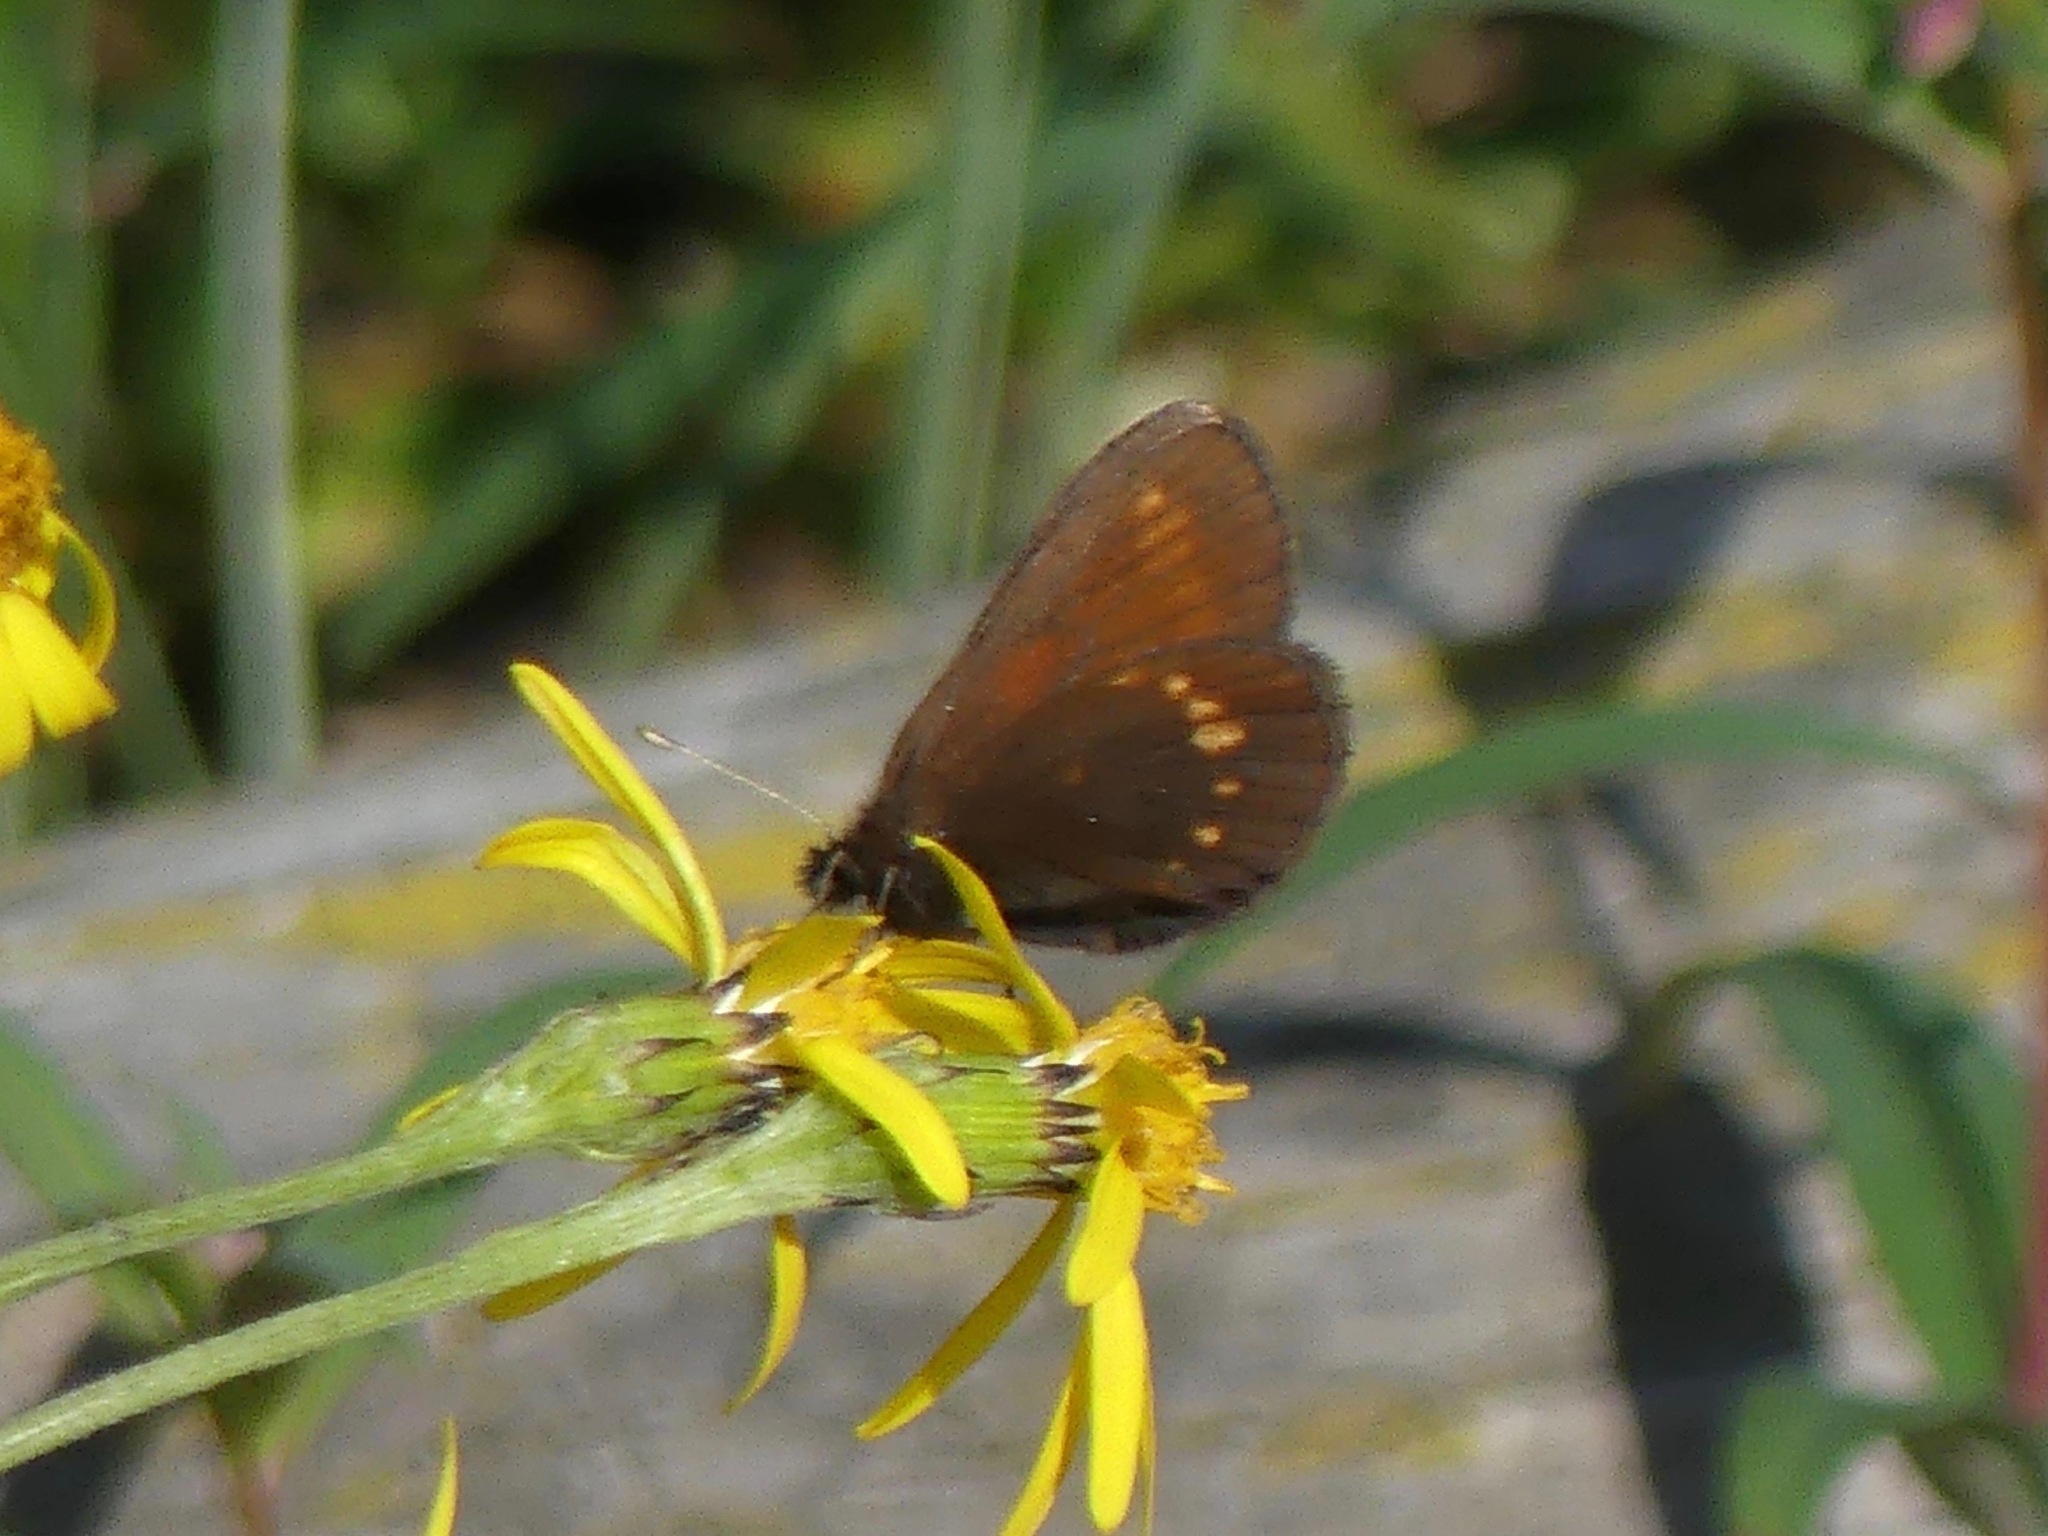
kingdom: Animalia
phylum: Arthropoda
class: Insecta
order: Lepidoptera
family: Nymphalidae
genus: Erebia
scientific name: Erebia pawloskii
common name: Theano alpine
